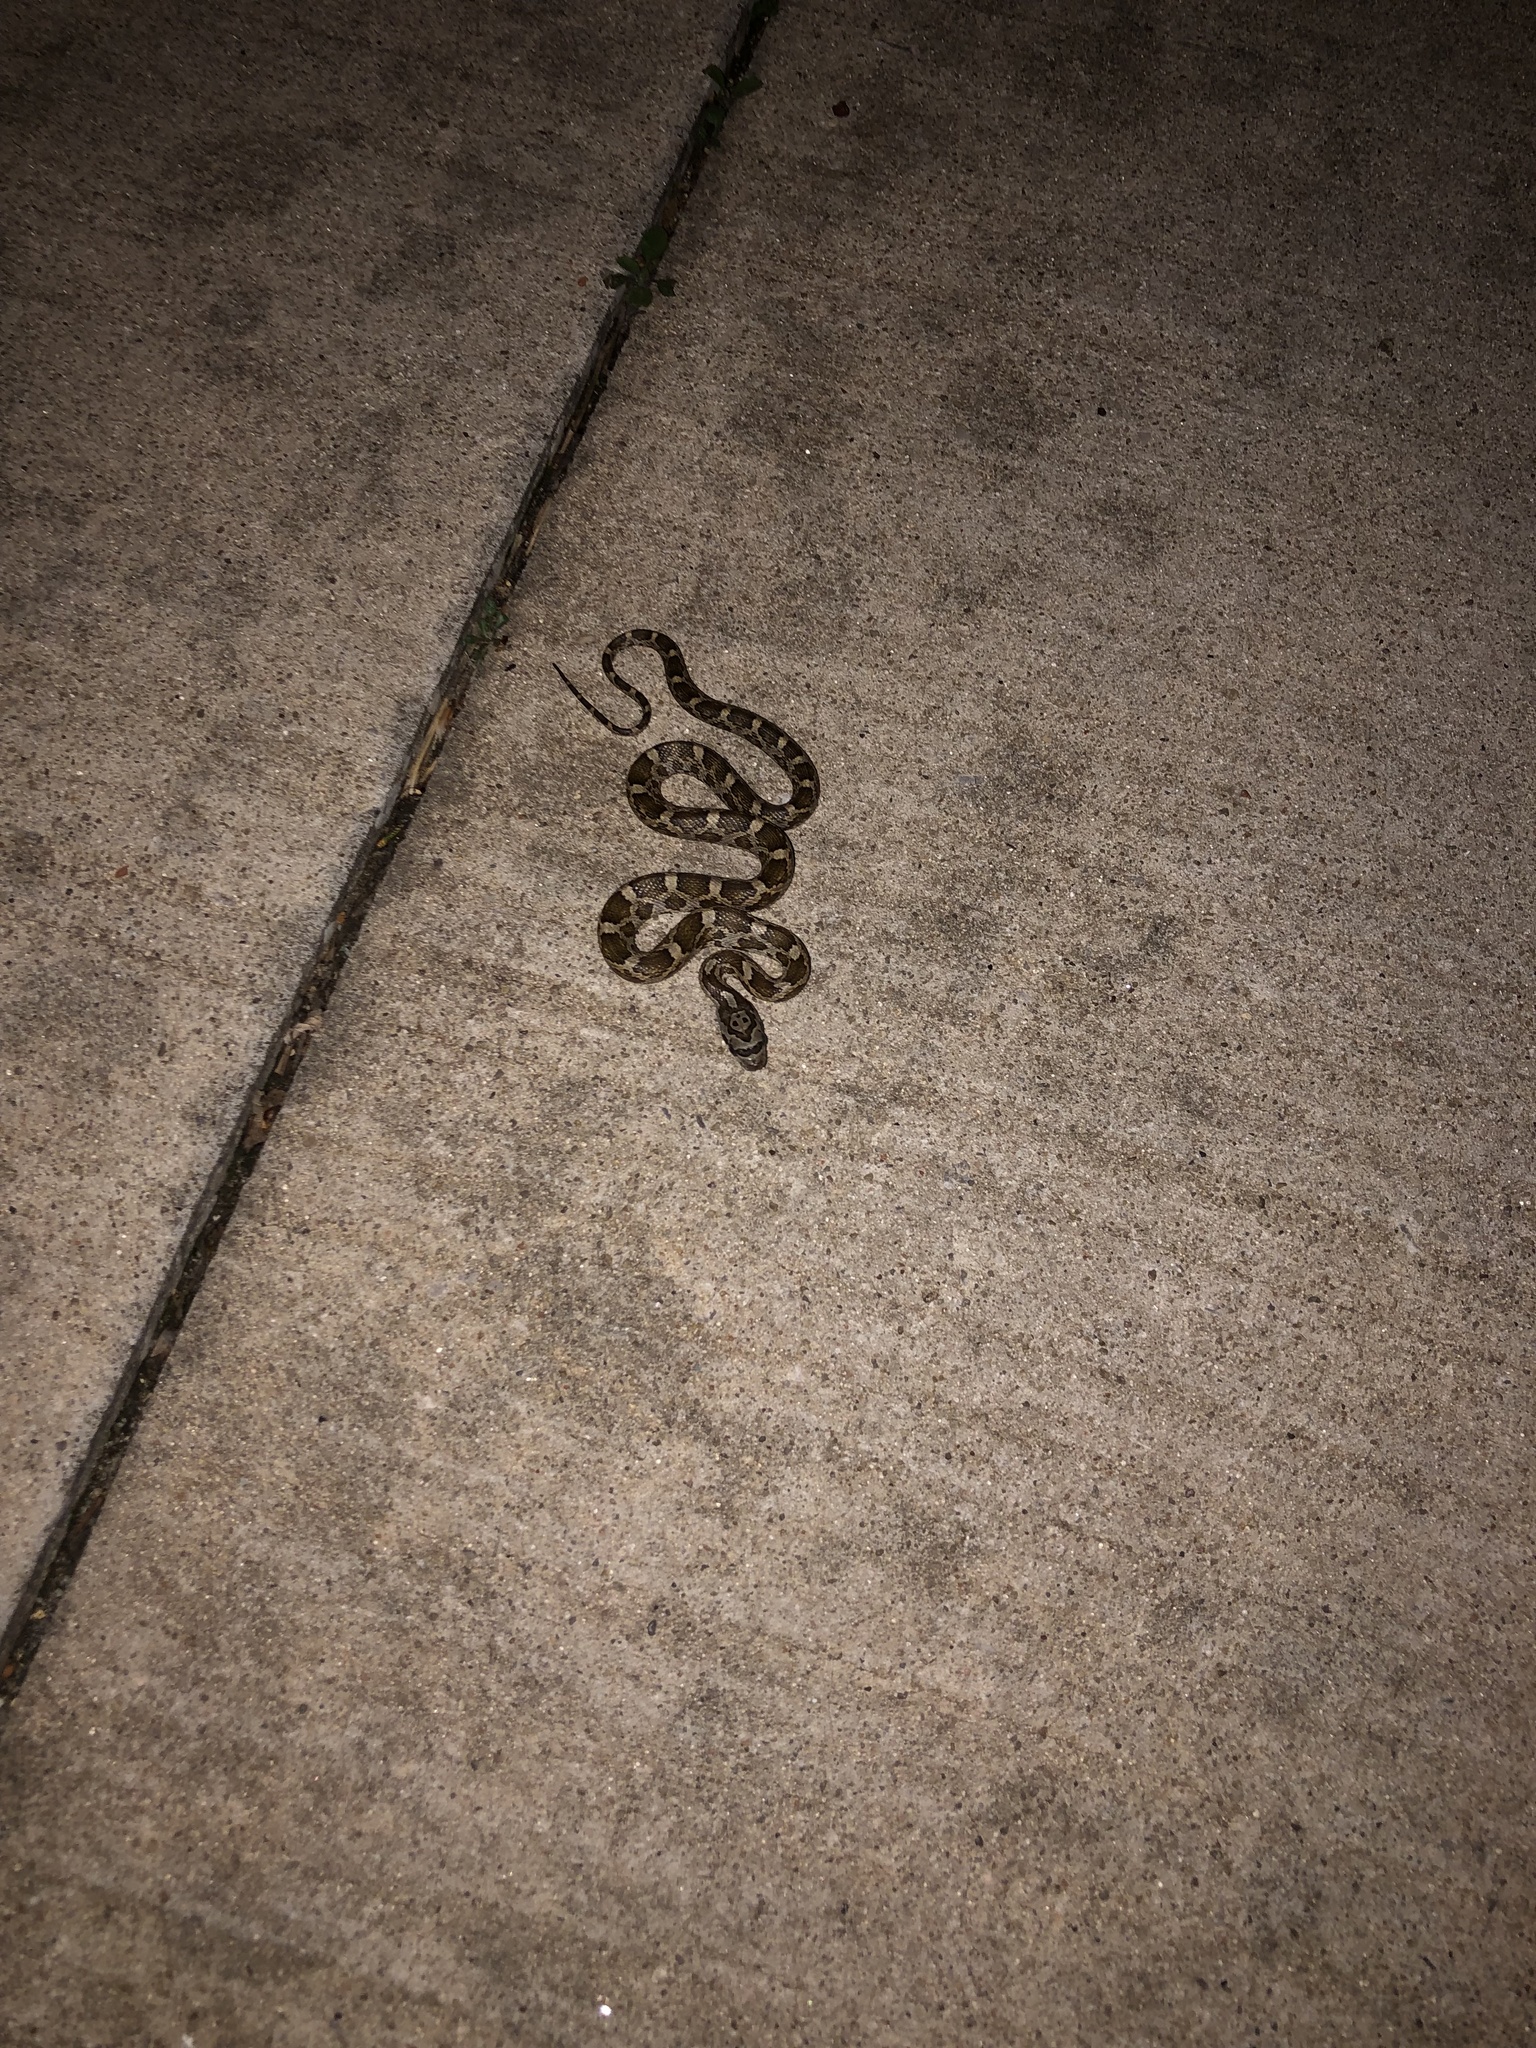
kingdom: Animalia
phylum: Chordata
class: Squamata
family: Colubridae
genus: Pantherophis
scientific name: Pantherophis obsoletus
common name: Black rat snake
